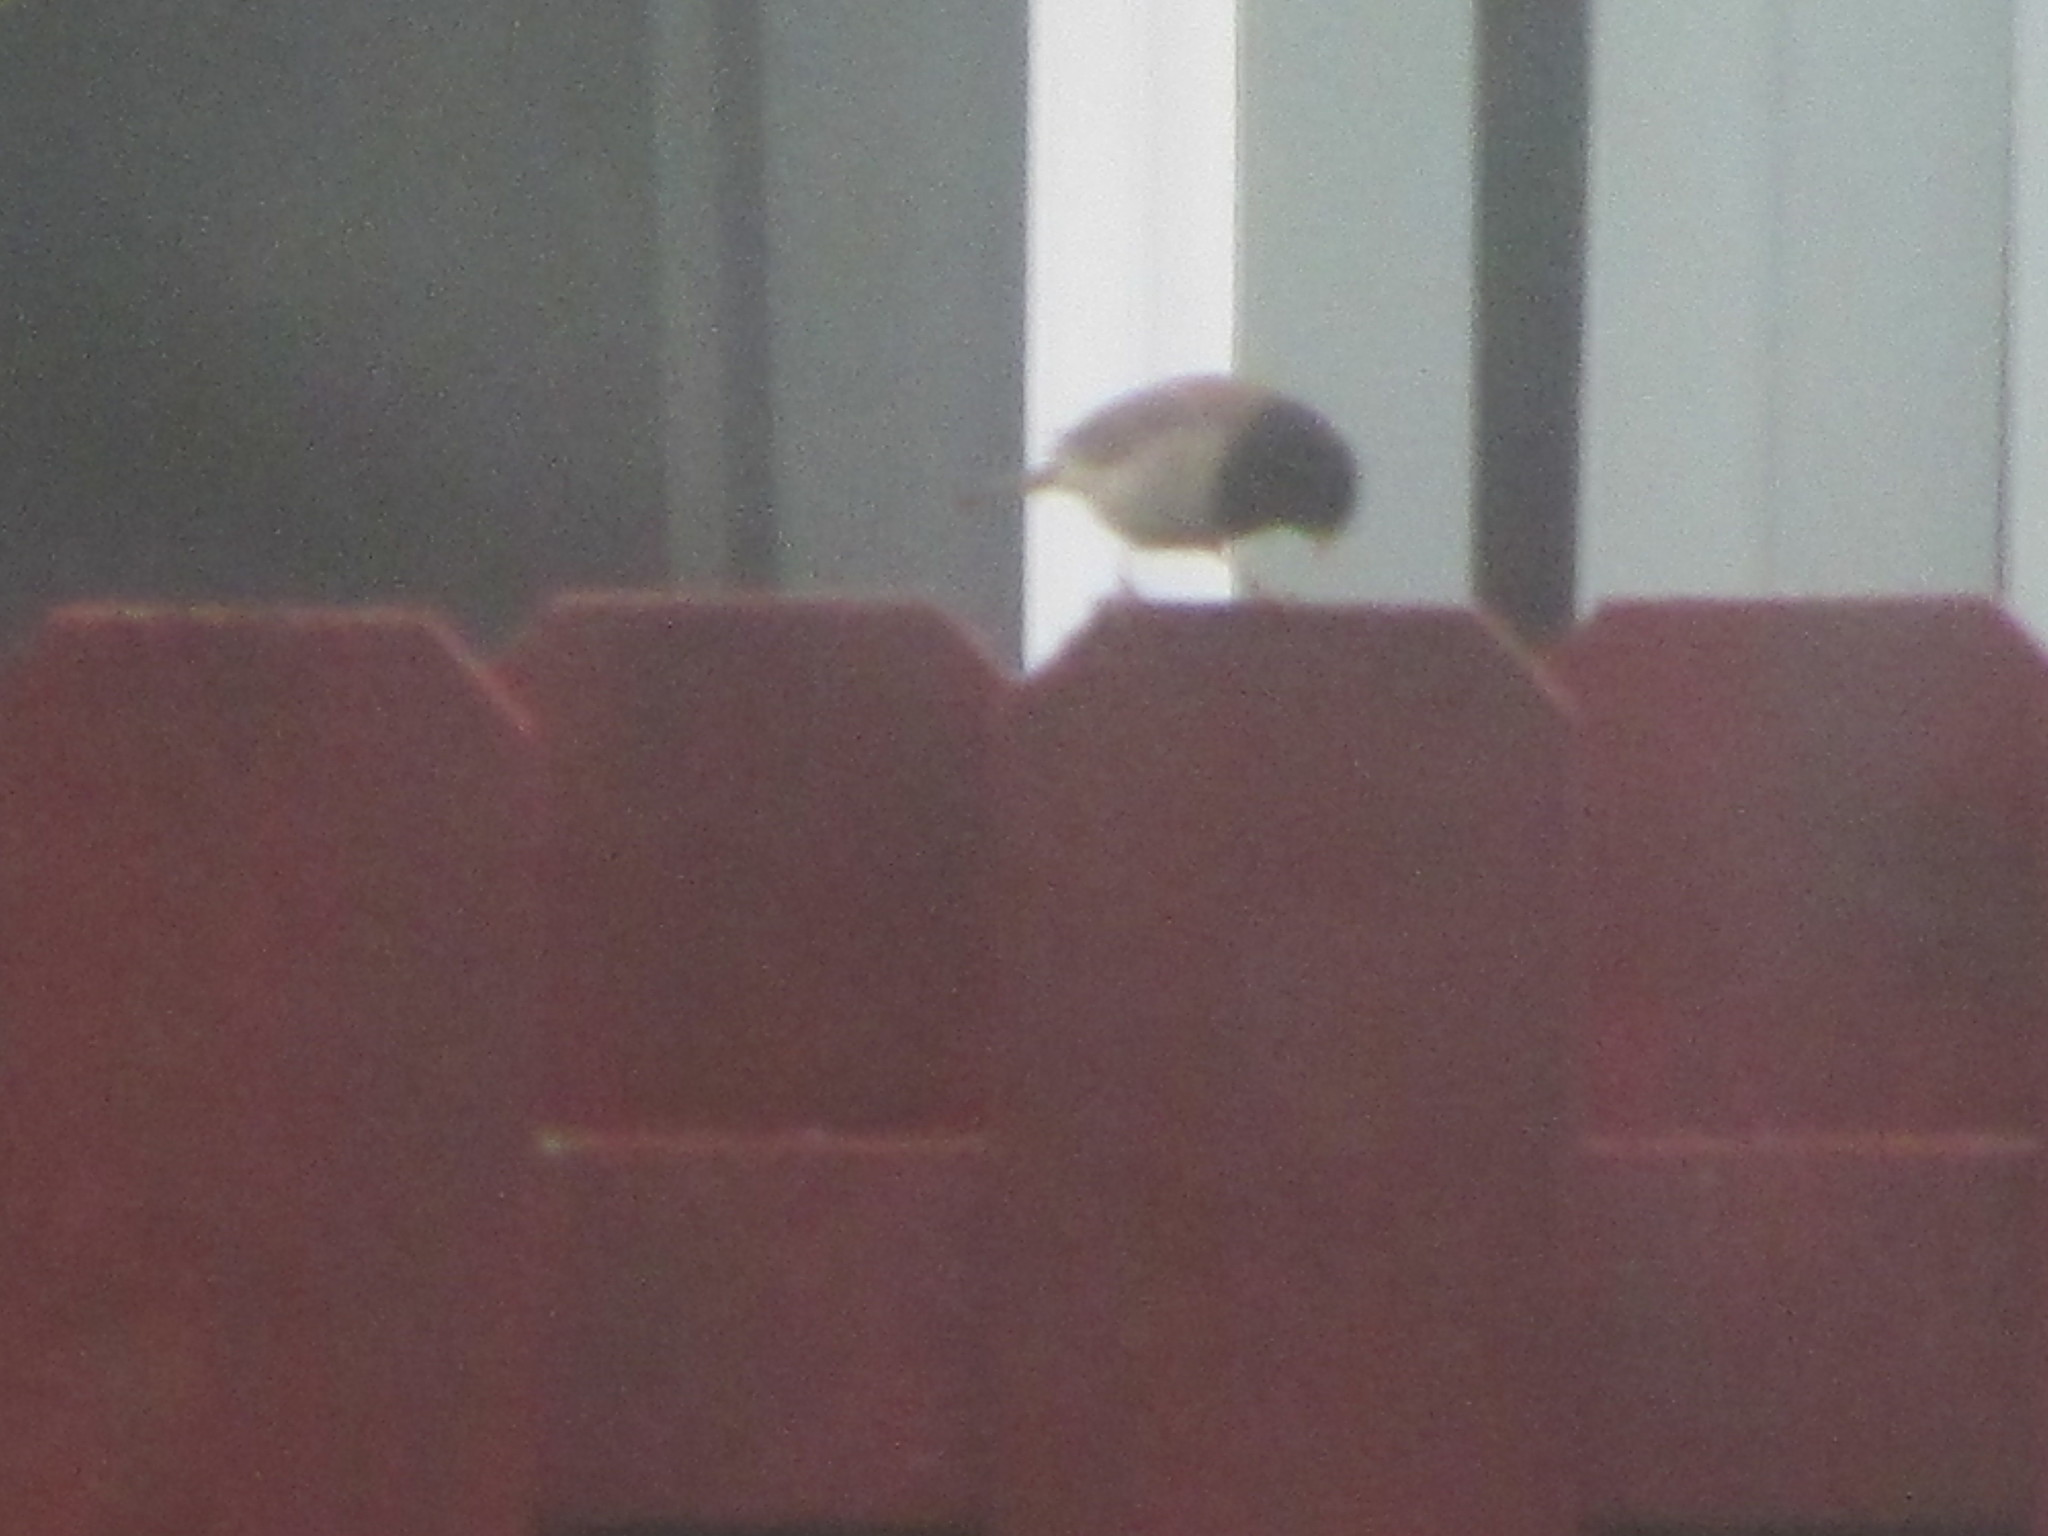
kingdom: Animalia
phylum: Chordata
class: Aves
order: Passeriformes
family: Passerellidae
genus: Junco
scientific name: Junco hyemalis
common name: Dark-eyed junco
